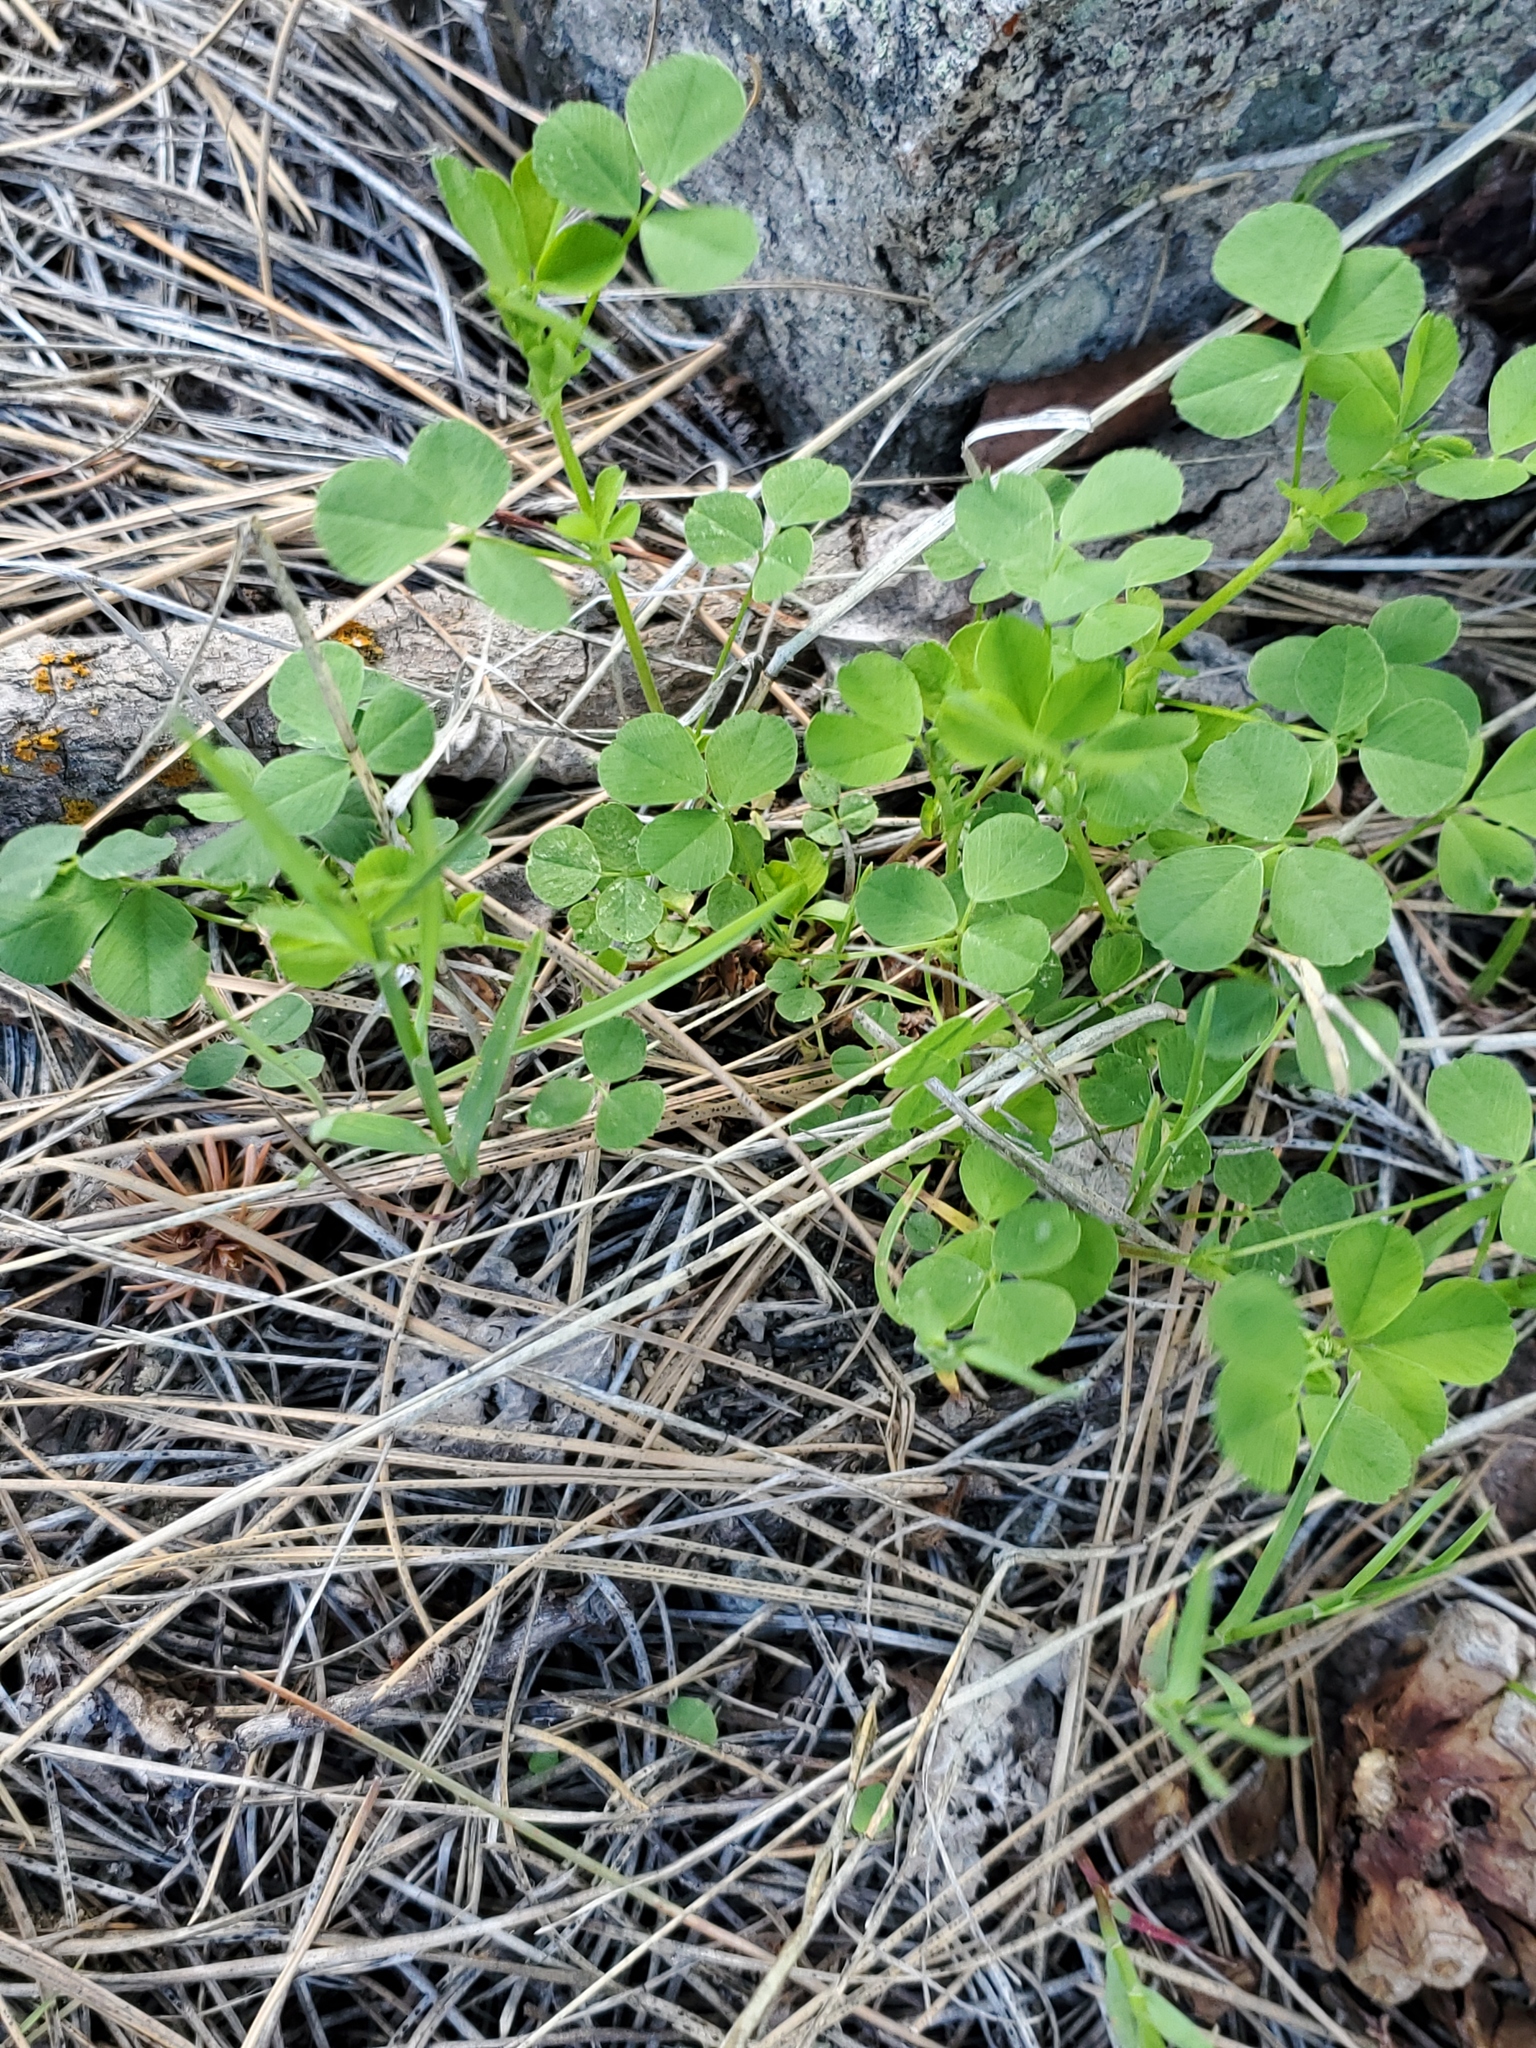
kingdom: Plantae
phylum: Tracheophyta
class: Magnoliopsida
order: Fabales
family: Fabaceae
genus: Medicago
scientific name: Medicago lupulina
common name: Black medick
